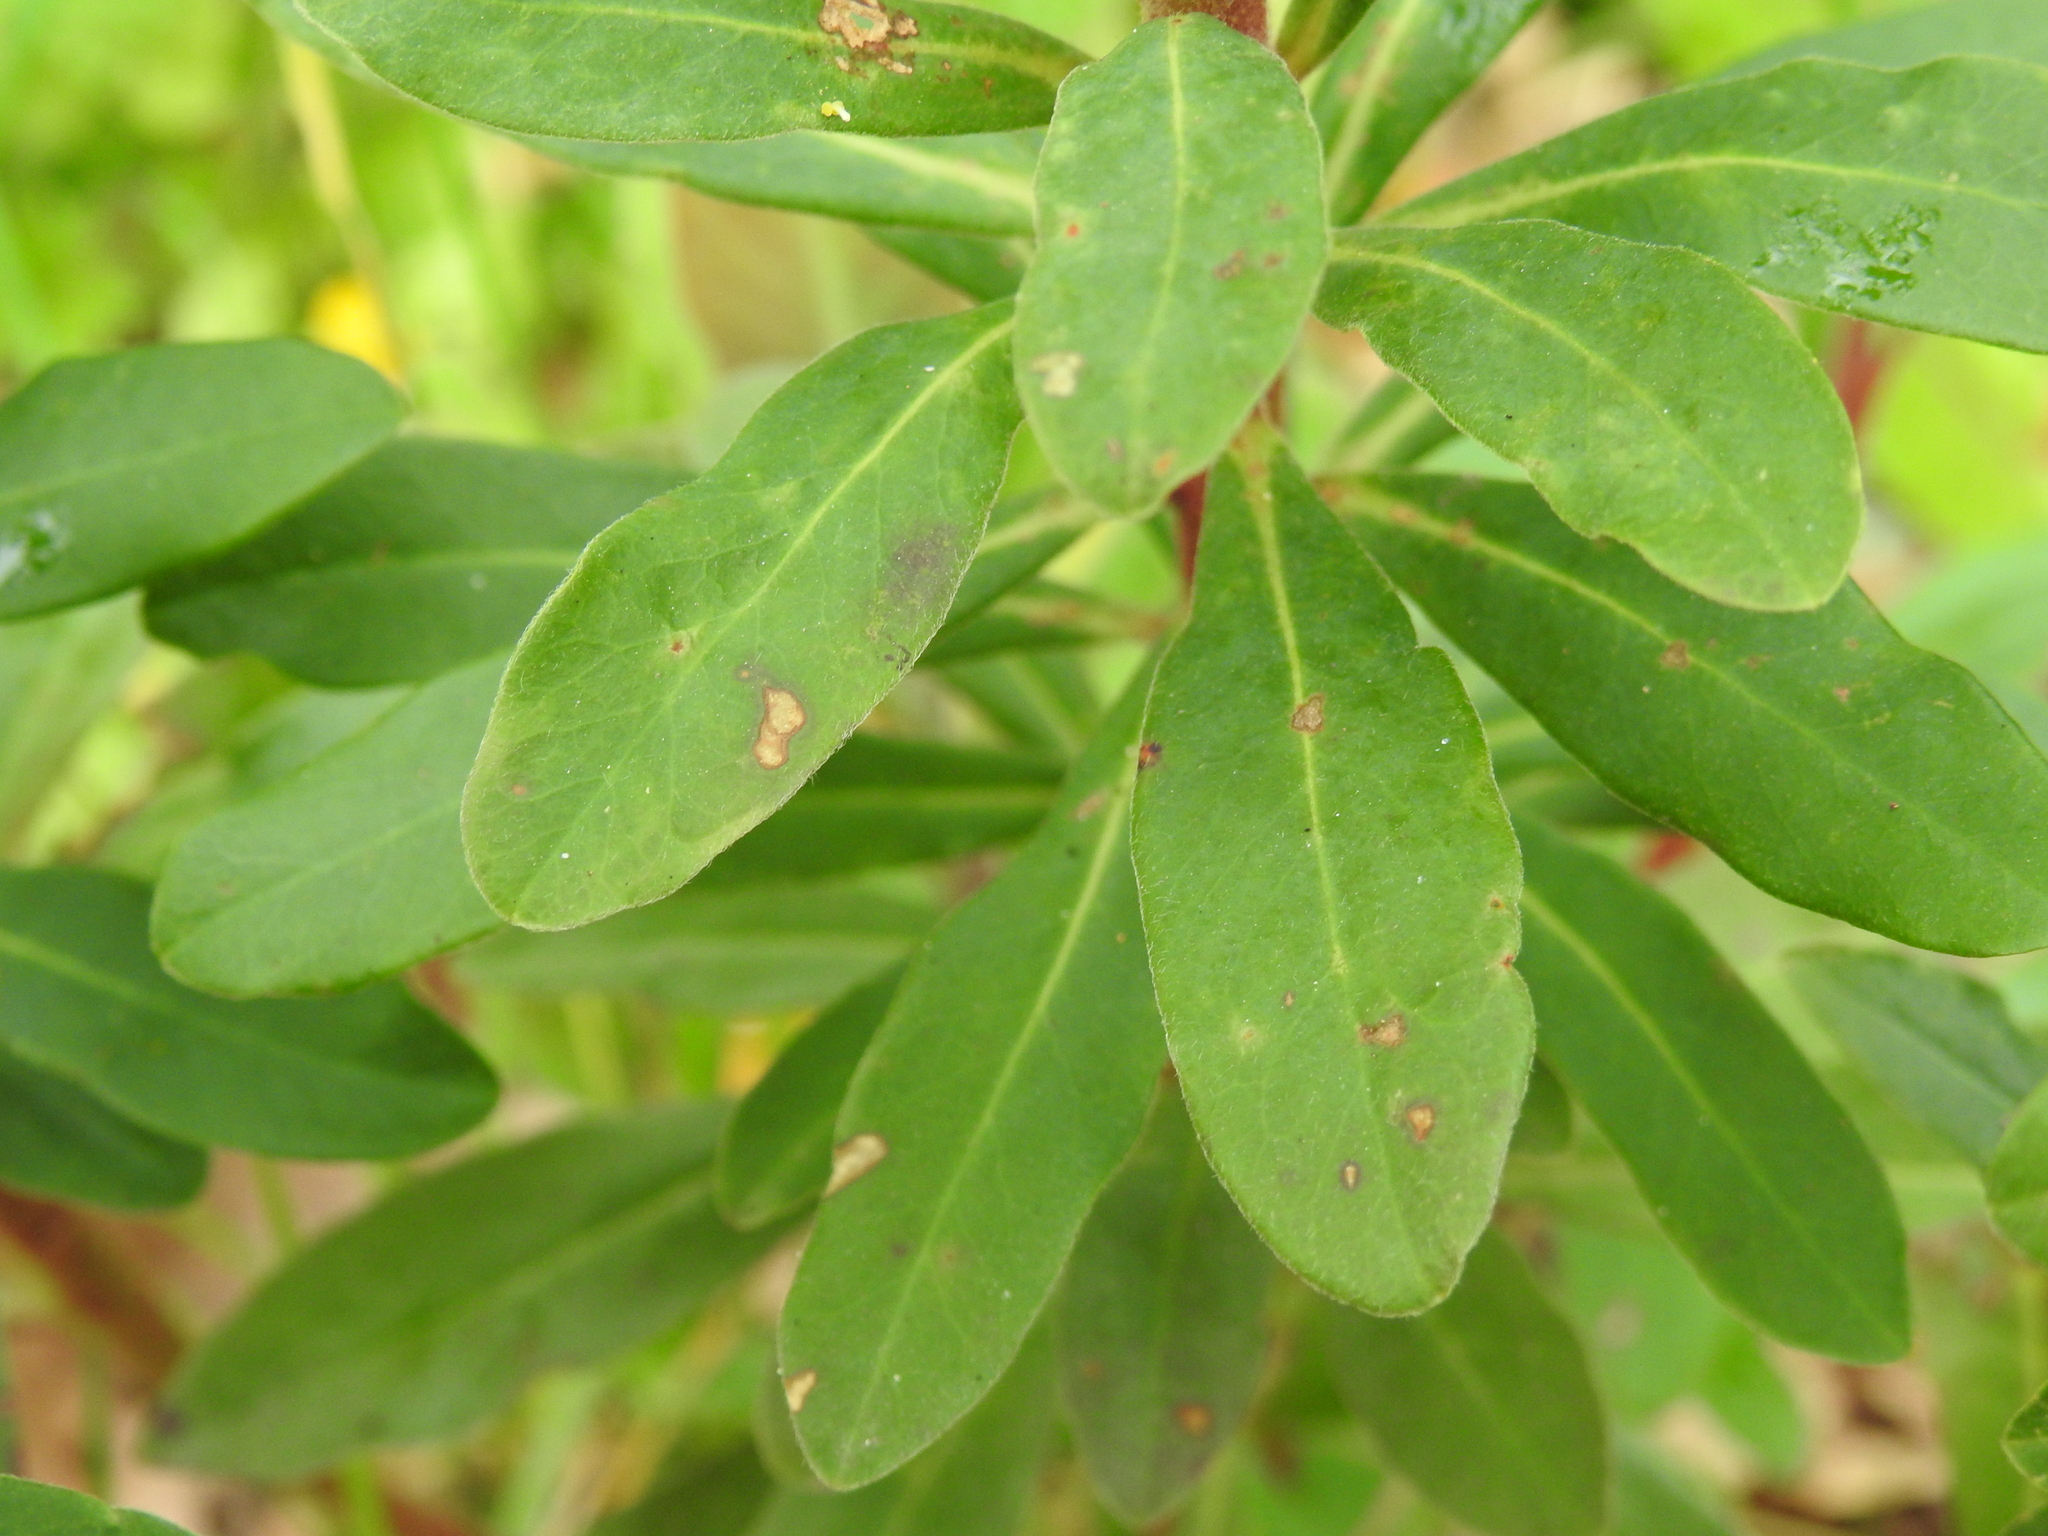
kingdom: Plantae
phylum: Tracheophyta
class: Magnoliopsida
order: Malpighiales
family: Euphorbiaceae
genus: Euphorbia
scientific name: Euphorbia amygdaloides
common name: Wood spurge
